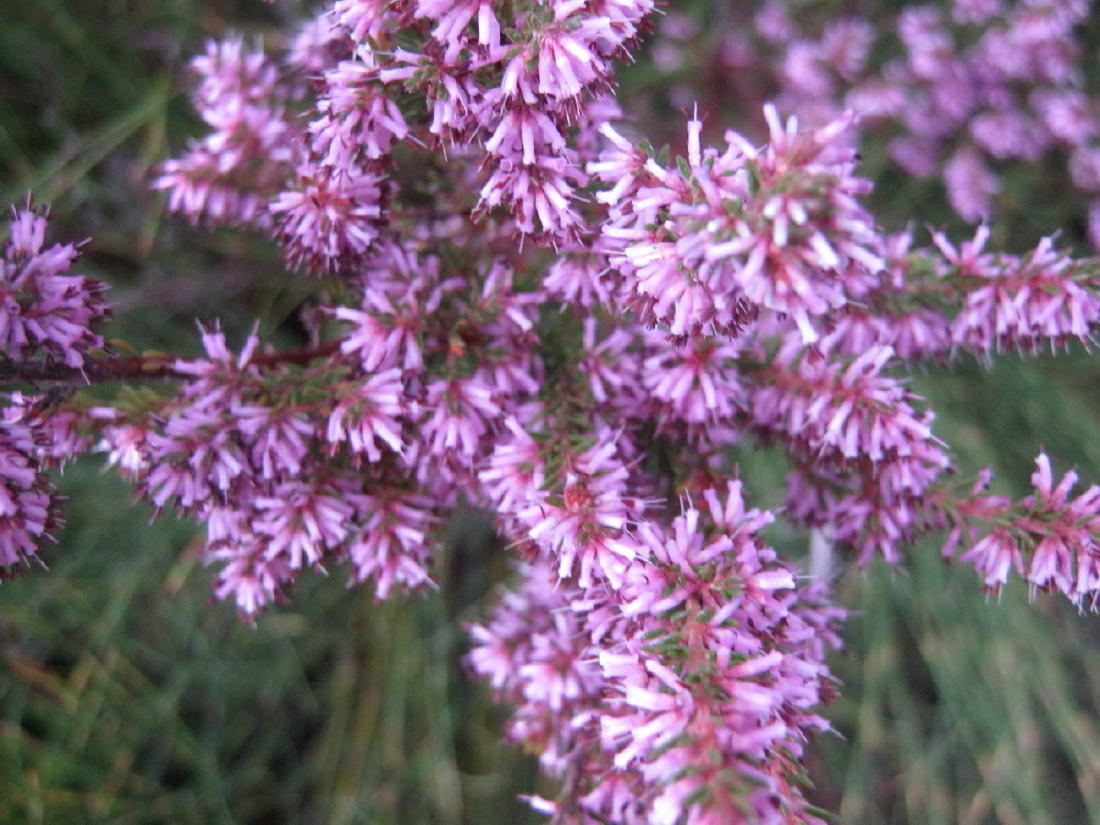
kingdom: Plantae
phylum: Tracheophyta
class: Magnoliopsida
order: Ericales
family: Ericaceae
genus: Erica
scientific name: Erica uberiflora
